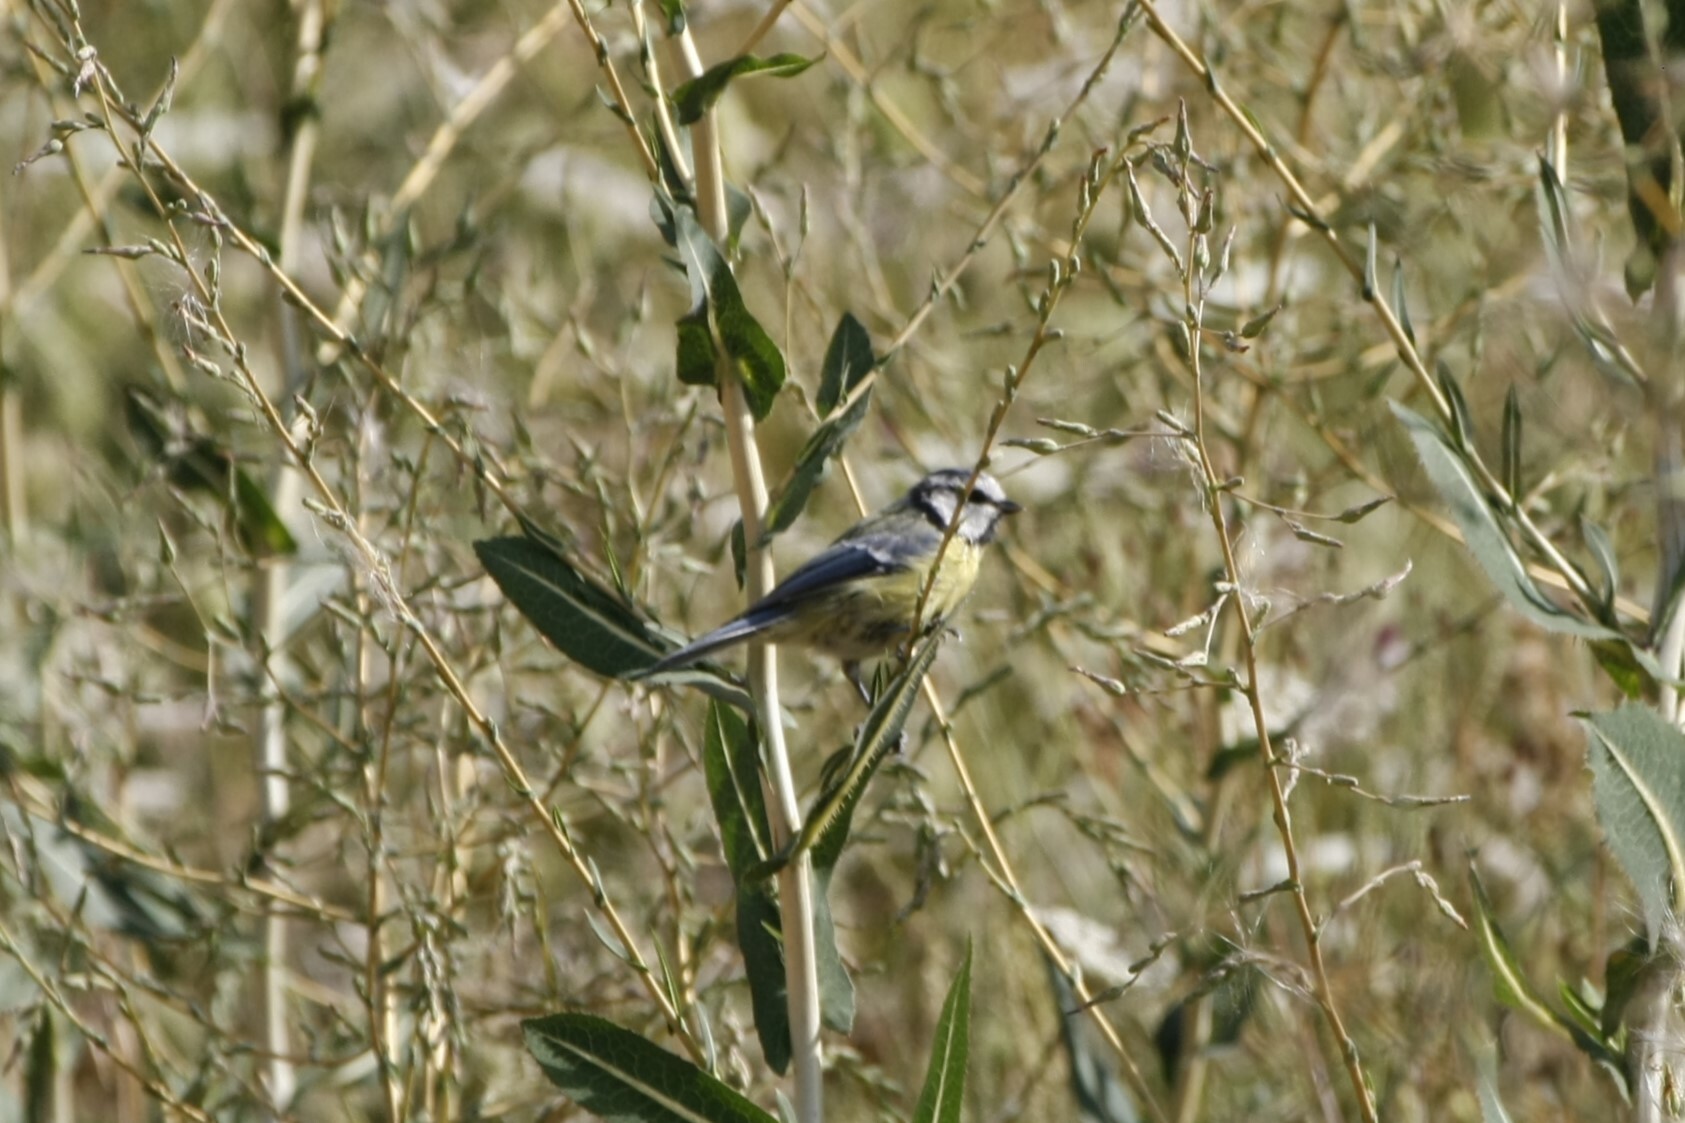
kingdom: Animalia
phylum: Chordata
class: Aves
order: Passeriformes
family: Paridae
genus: Cyanistes
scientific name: Cyanistes caeruleus
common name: Eurasian blue tit
